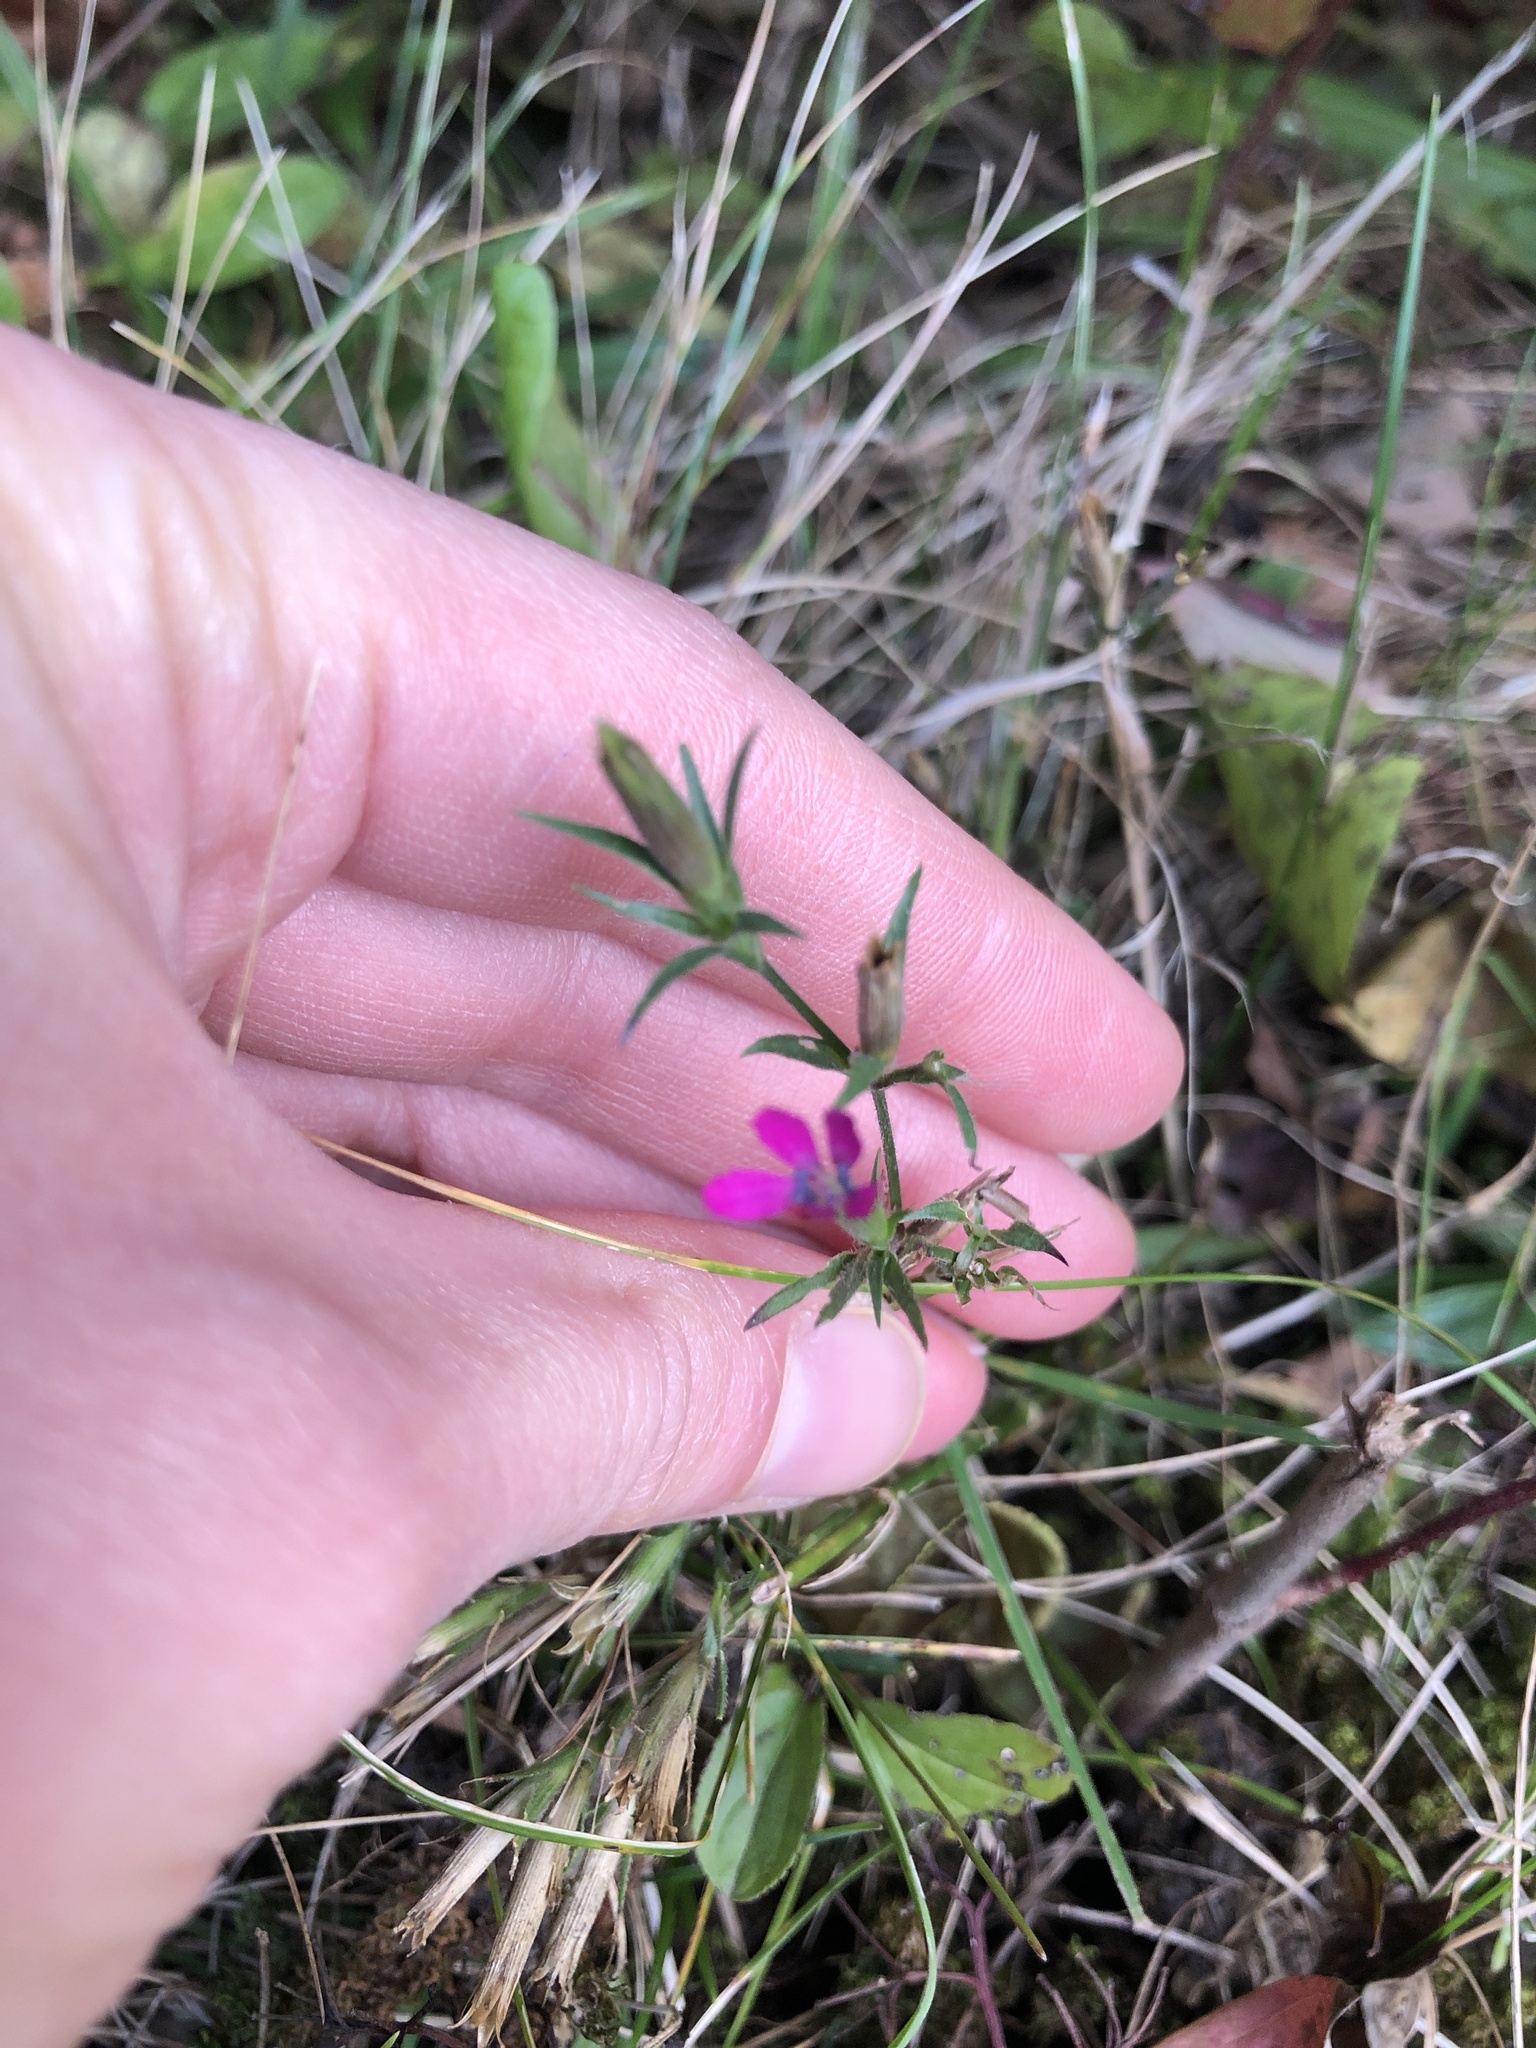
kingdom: Plantae
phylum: Tracheophyta
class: Magnoliopsida
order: Caryophyllales
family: Caryophyllaceae
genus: Dianthus
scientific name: Dianthus armeria
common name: Deptford pink
